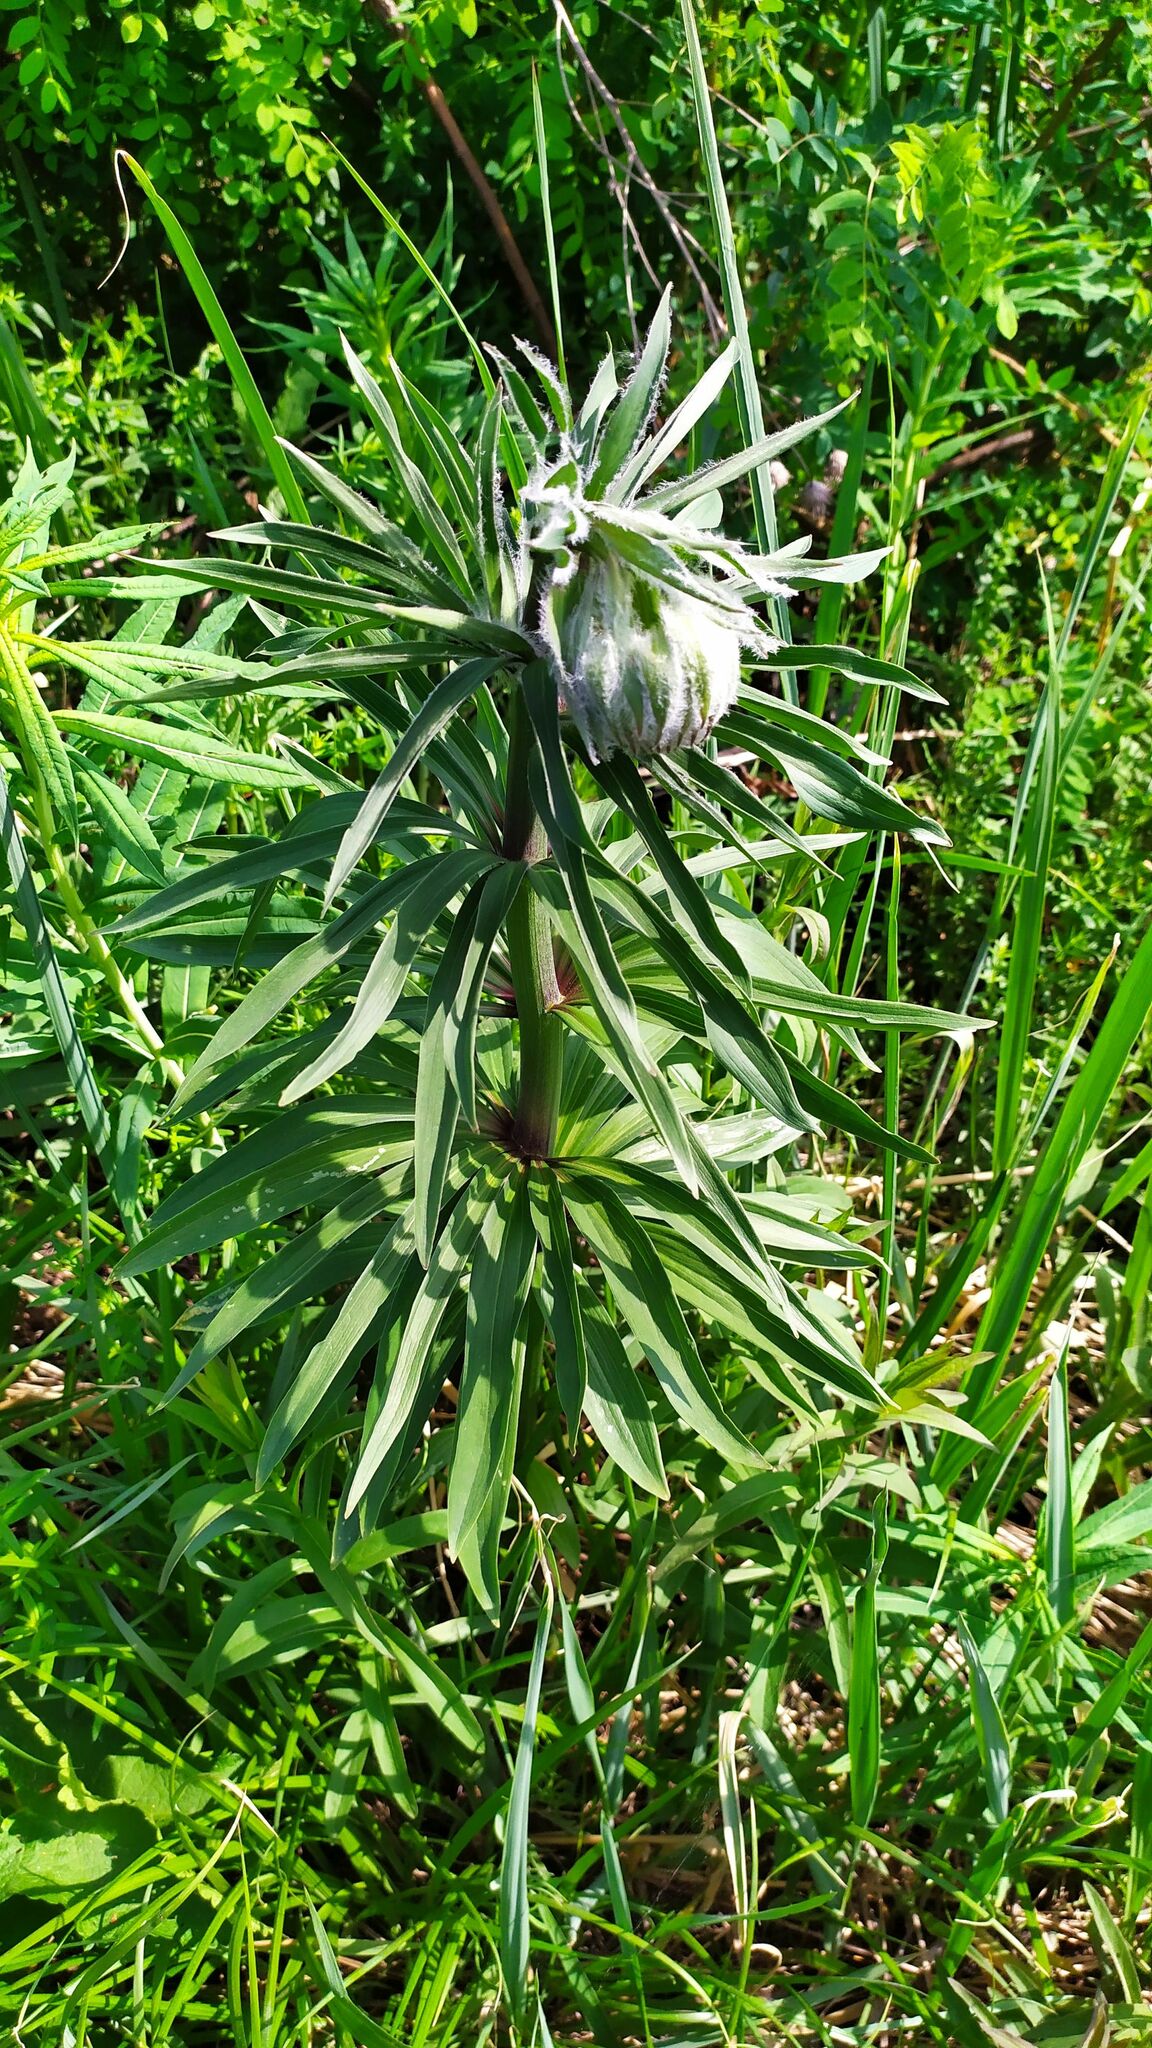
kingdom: Plantae
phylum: Tracheophyta
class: Liliopsida
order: Liliales
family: Liliaceae
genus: Lilium
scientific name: Lilium martagon
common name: Martagon lily
